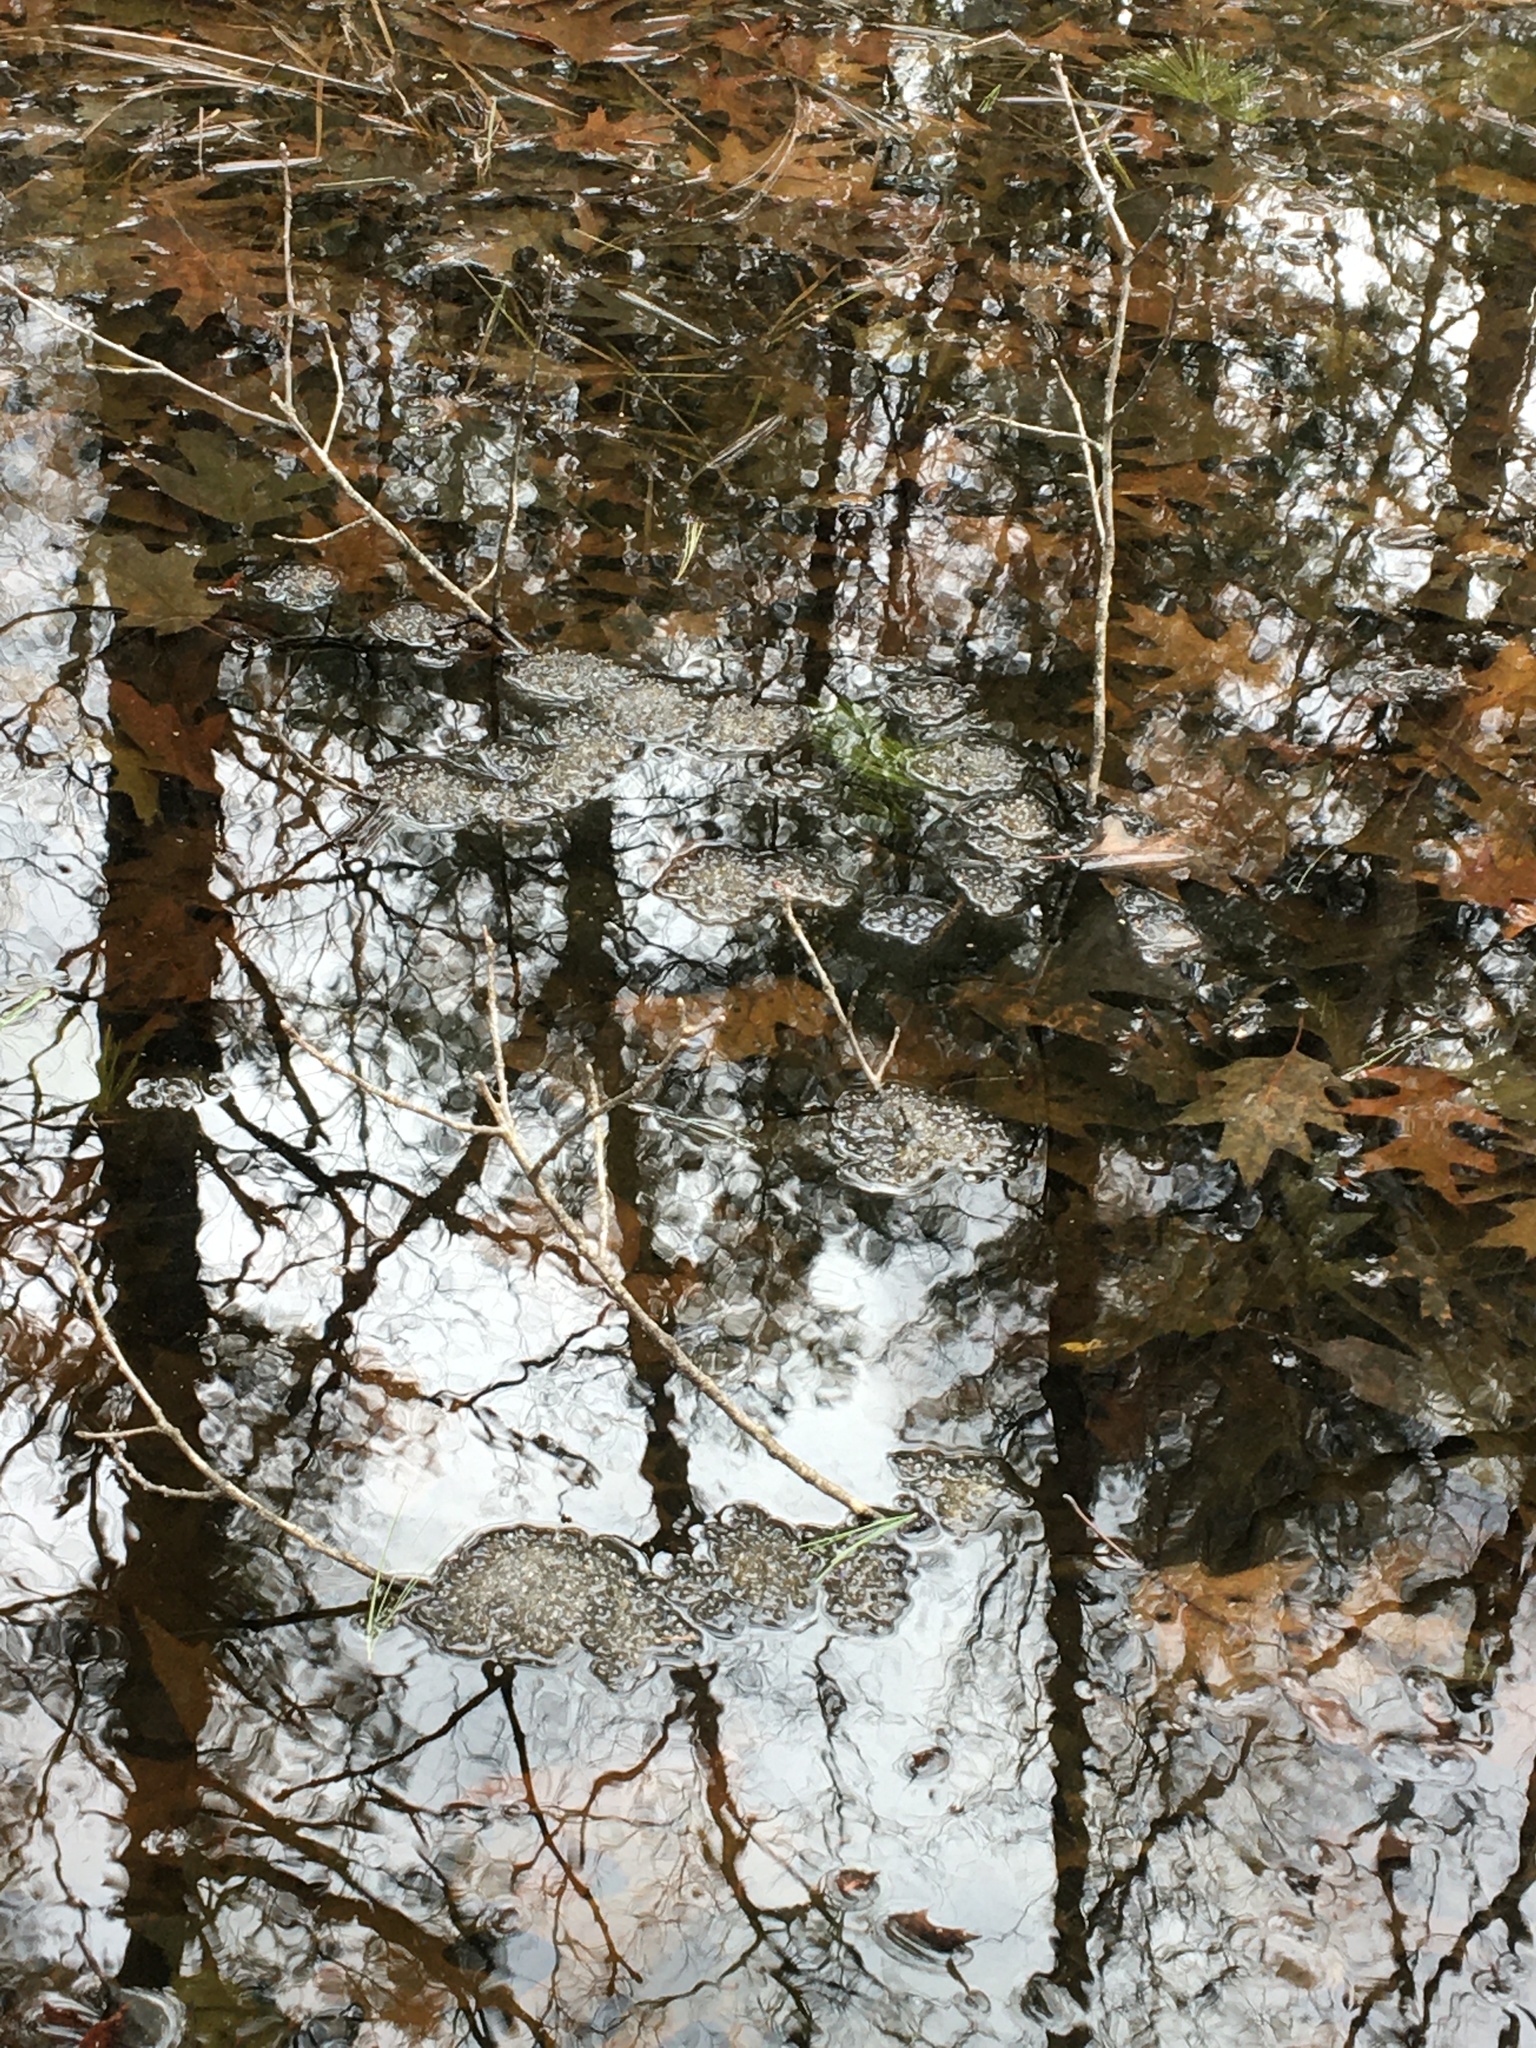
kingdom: Animalia
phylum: Chordata
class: Amphibia
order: Anura
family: Ranidae
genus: Lithobates
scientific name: Lithobates sylvaticus
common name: Wood frog
